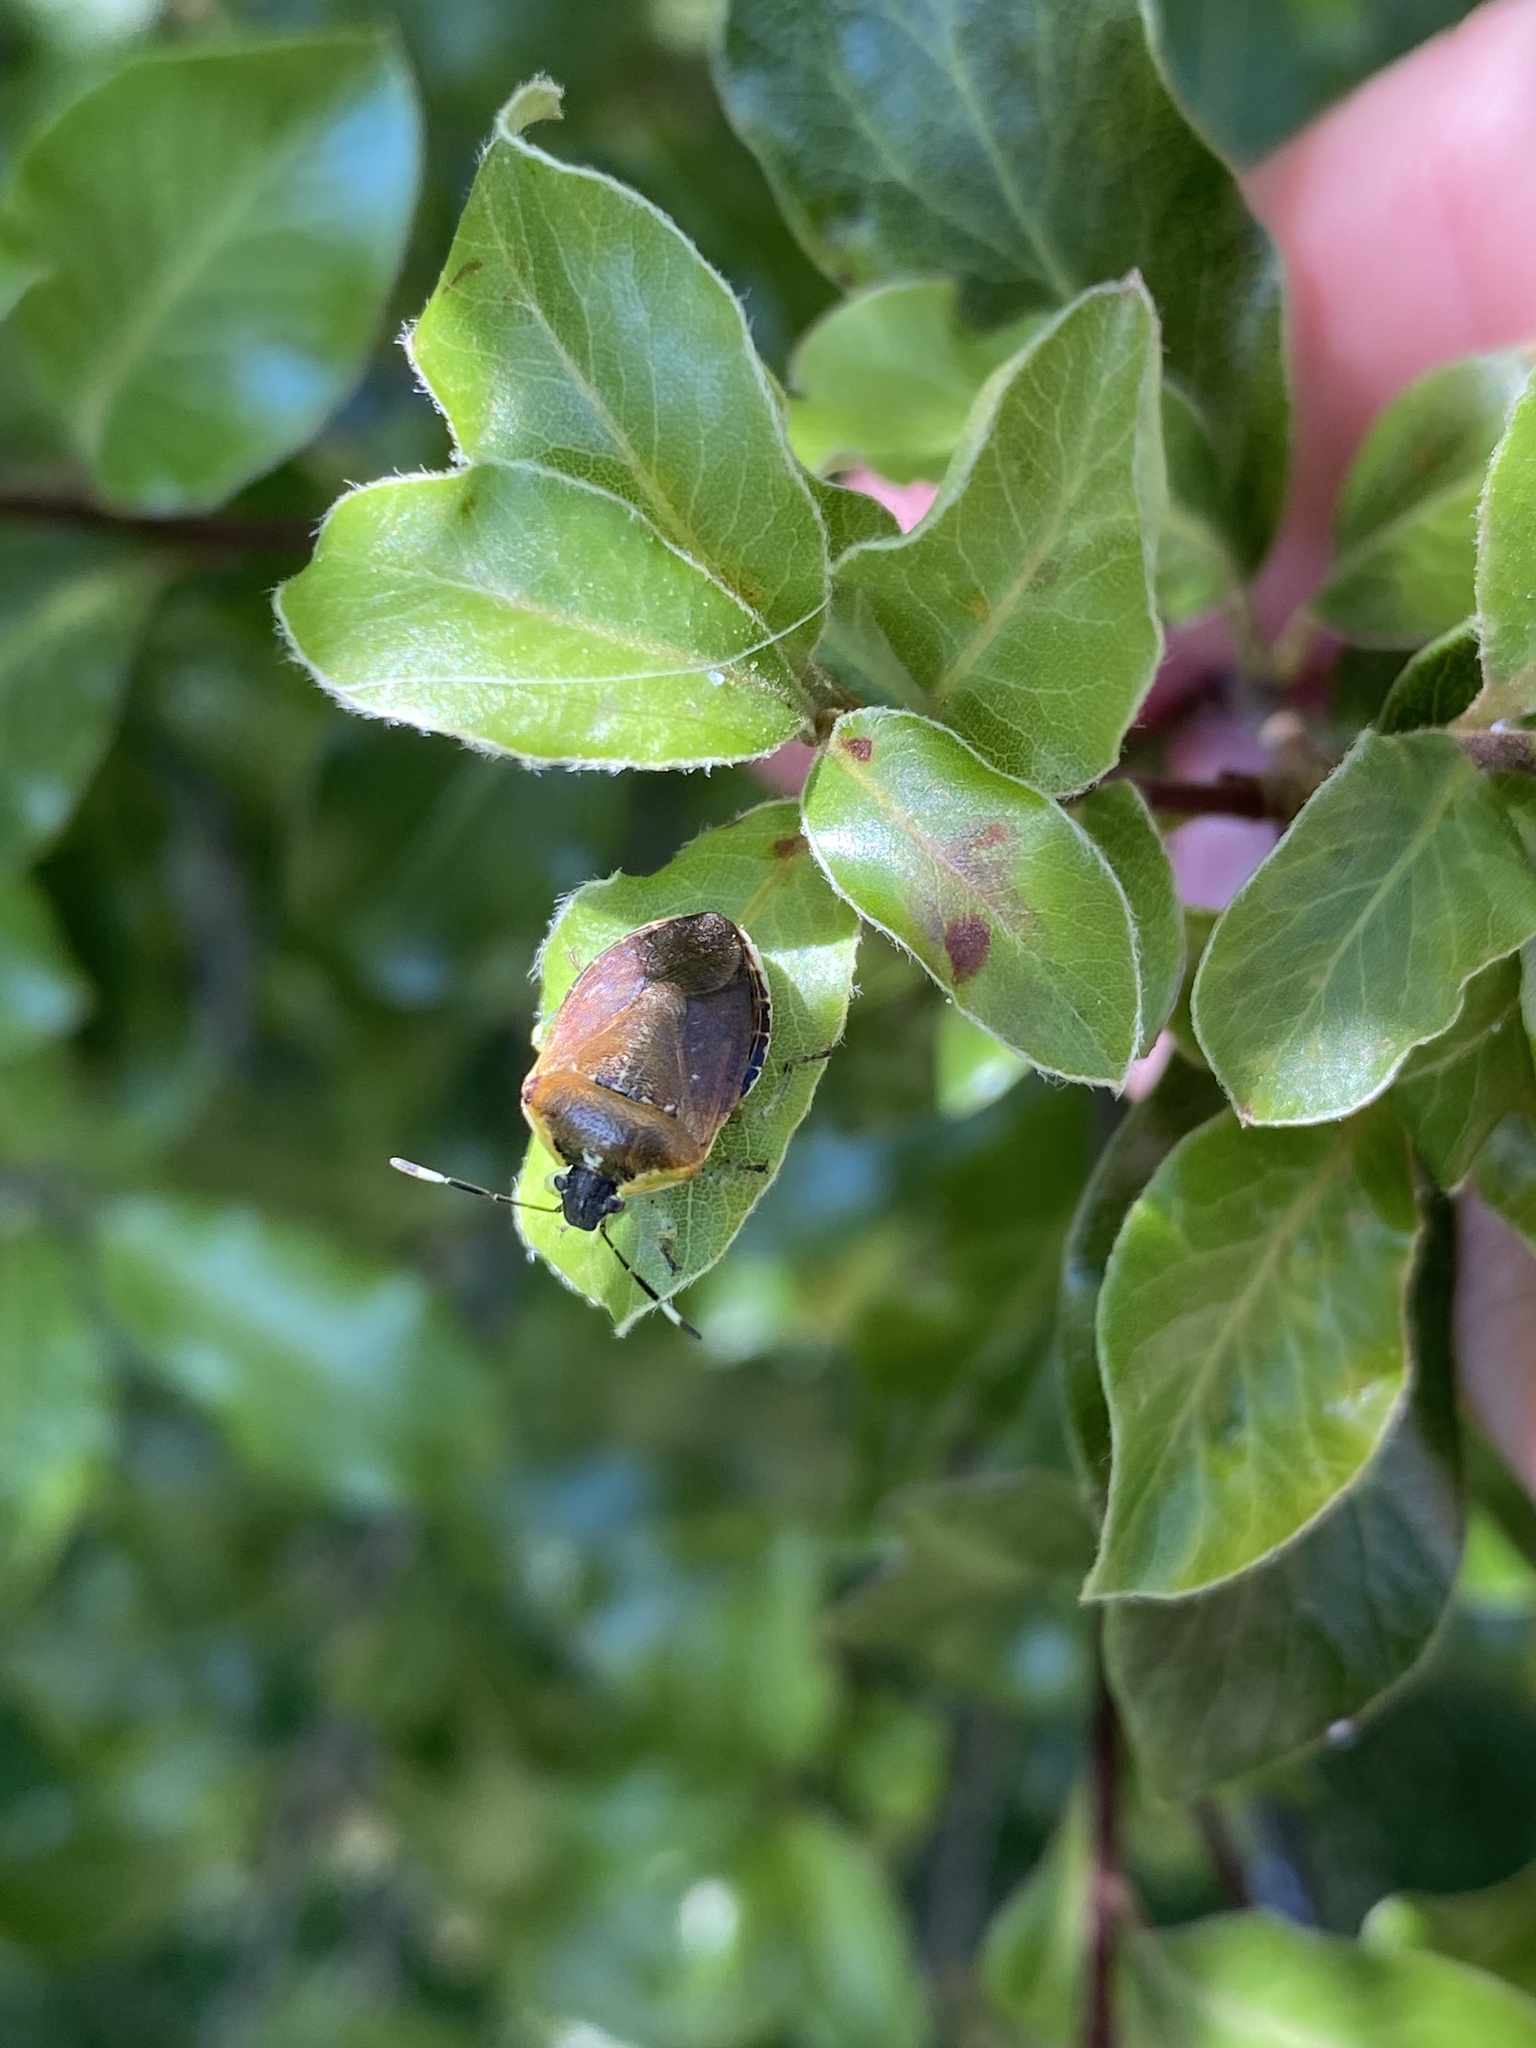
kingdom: Animalia
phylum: Arthropoda
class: Insecta
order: Hemiptera
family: Pentatomidae
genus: Monteithiella
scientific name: Monteithiella
